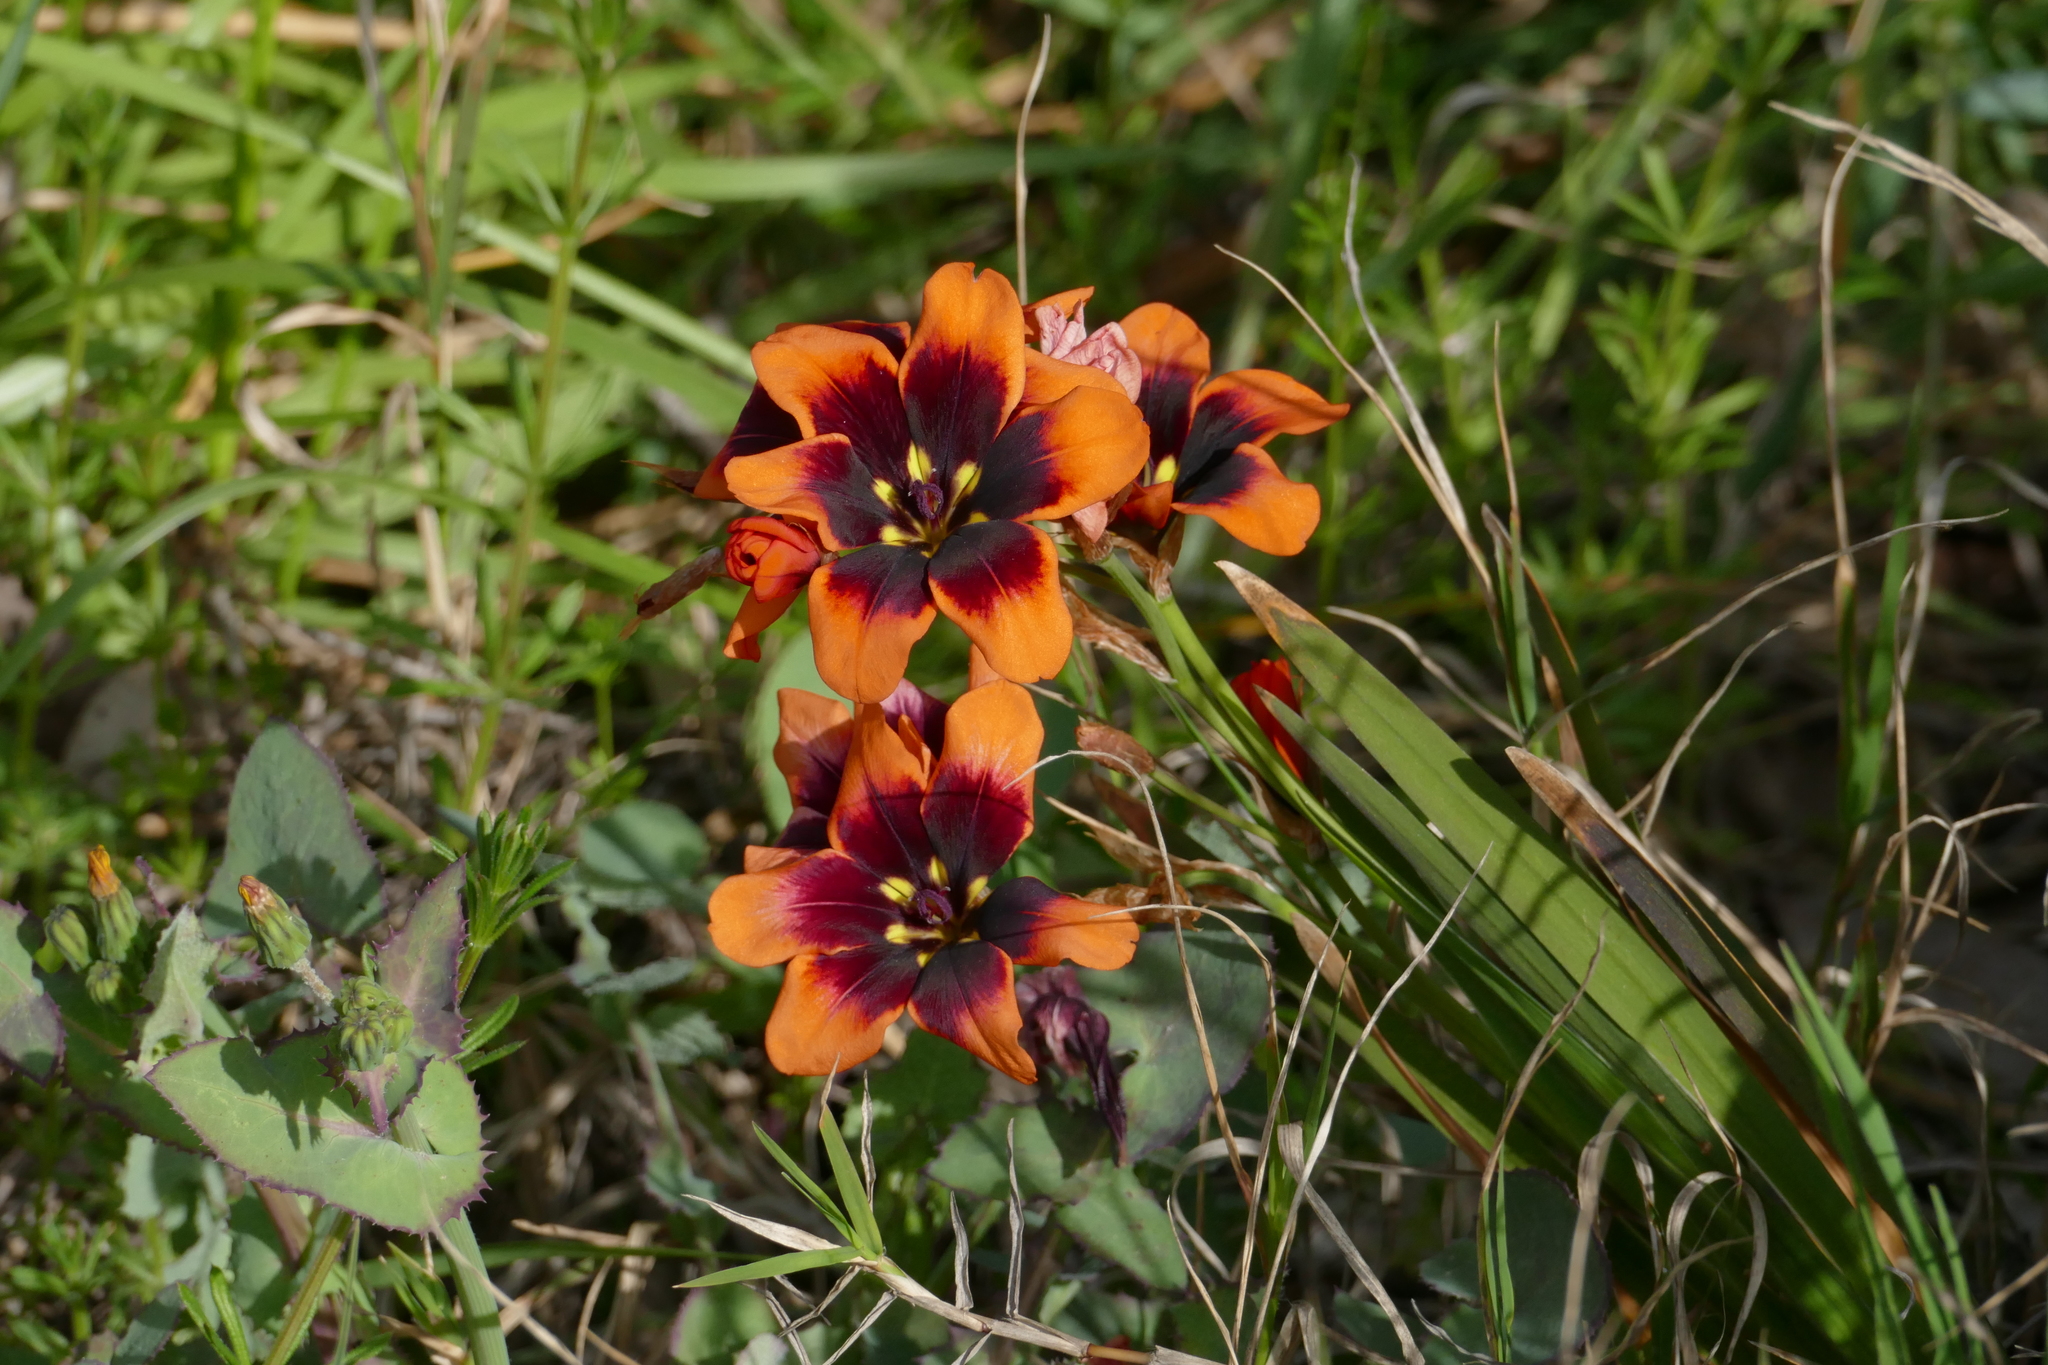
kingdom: Plantae
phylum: Tracheophyta
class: Liliopsida
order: Asparagales
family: Iridaceae
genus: Sparaxis
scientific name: Sparaxis tricolor
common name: Wandflower
